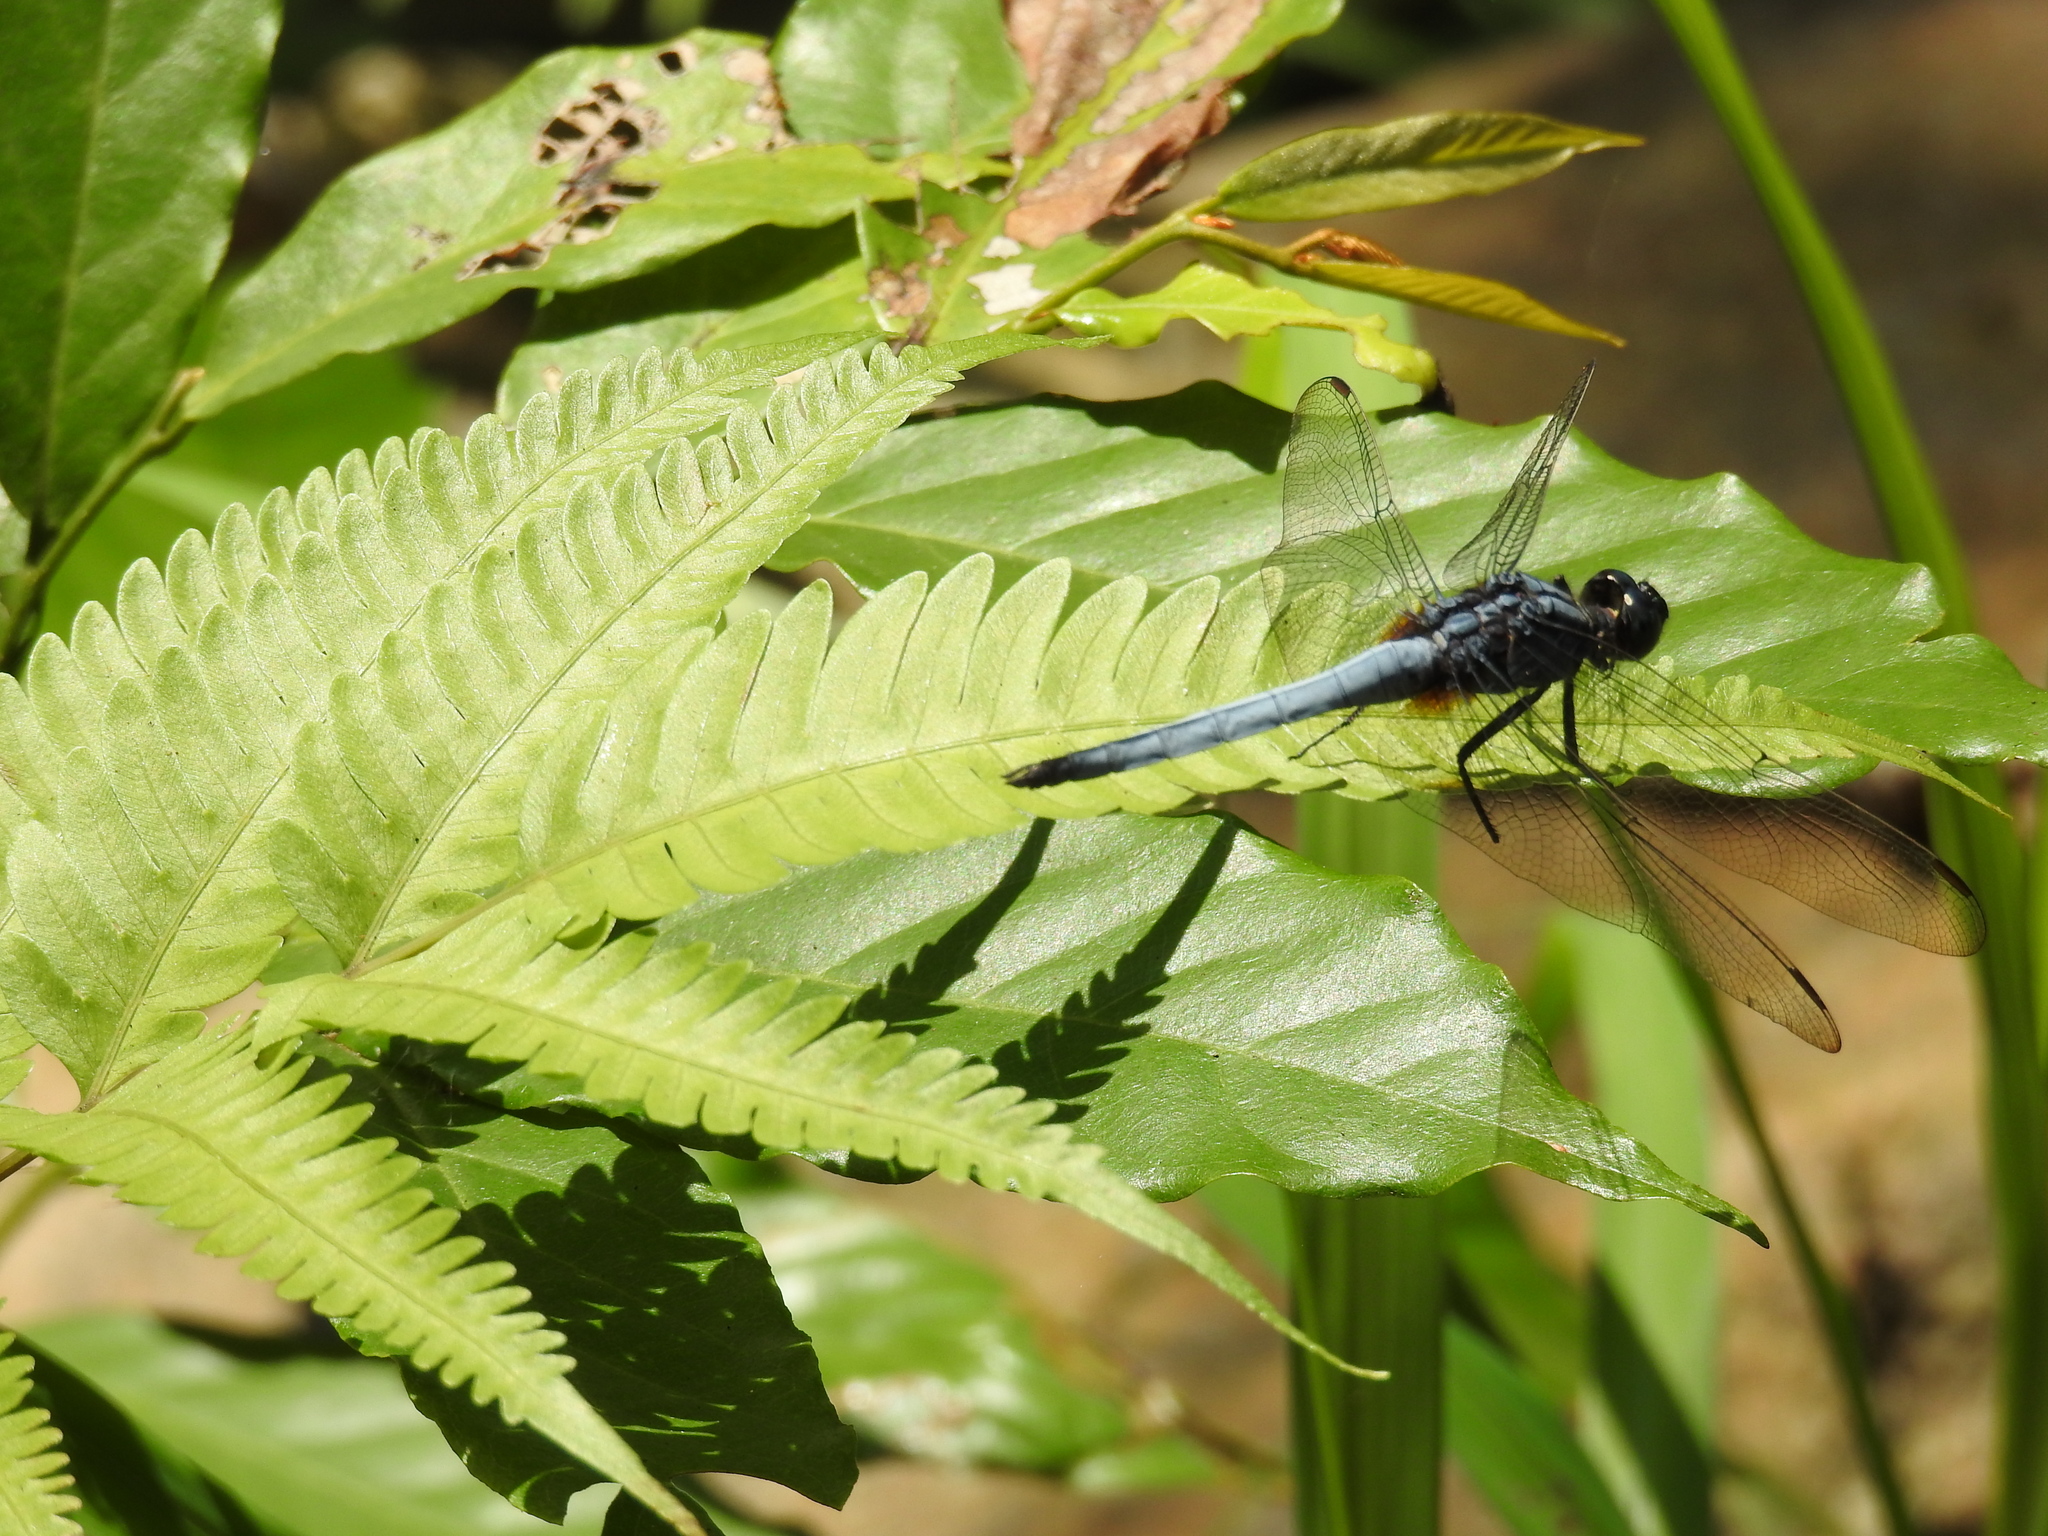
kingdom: Animalia
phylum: Arthropoda
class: Insecta
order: Odonata
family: Libellulidae
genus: Orthetrum
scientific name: Orthetrum glaucum
